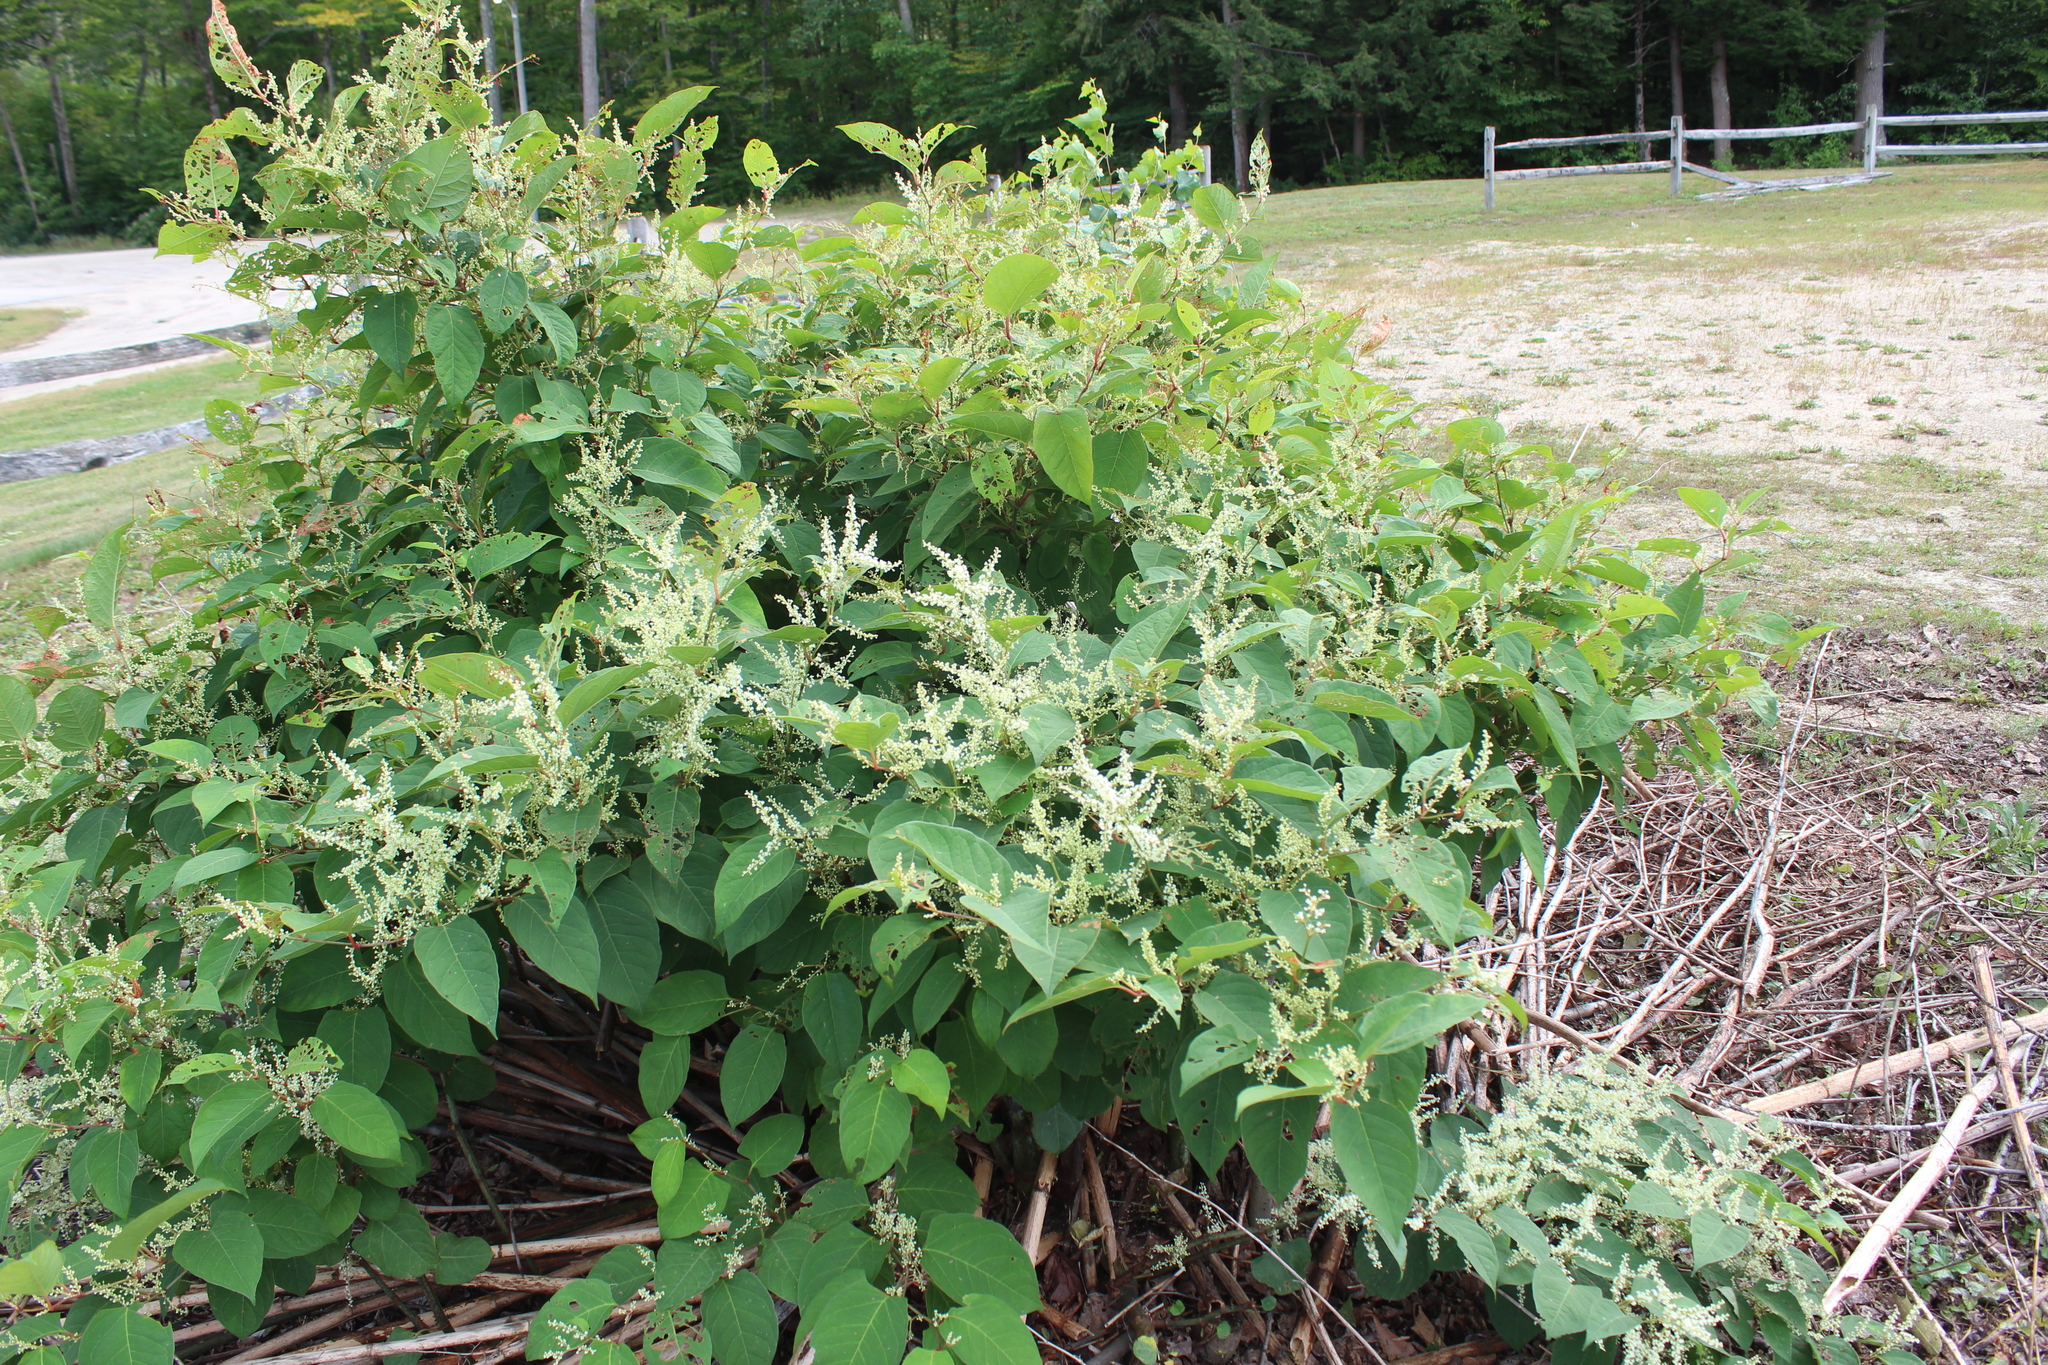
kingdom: Plantae
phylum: Tracheophyta
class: Magnoliopsida
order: Caryophyllales
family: Polygonaceae
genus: Reynoutria
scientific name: Reynoutria japonica
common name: Japanese knotweed
